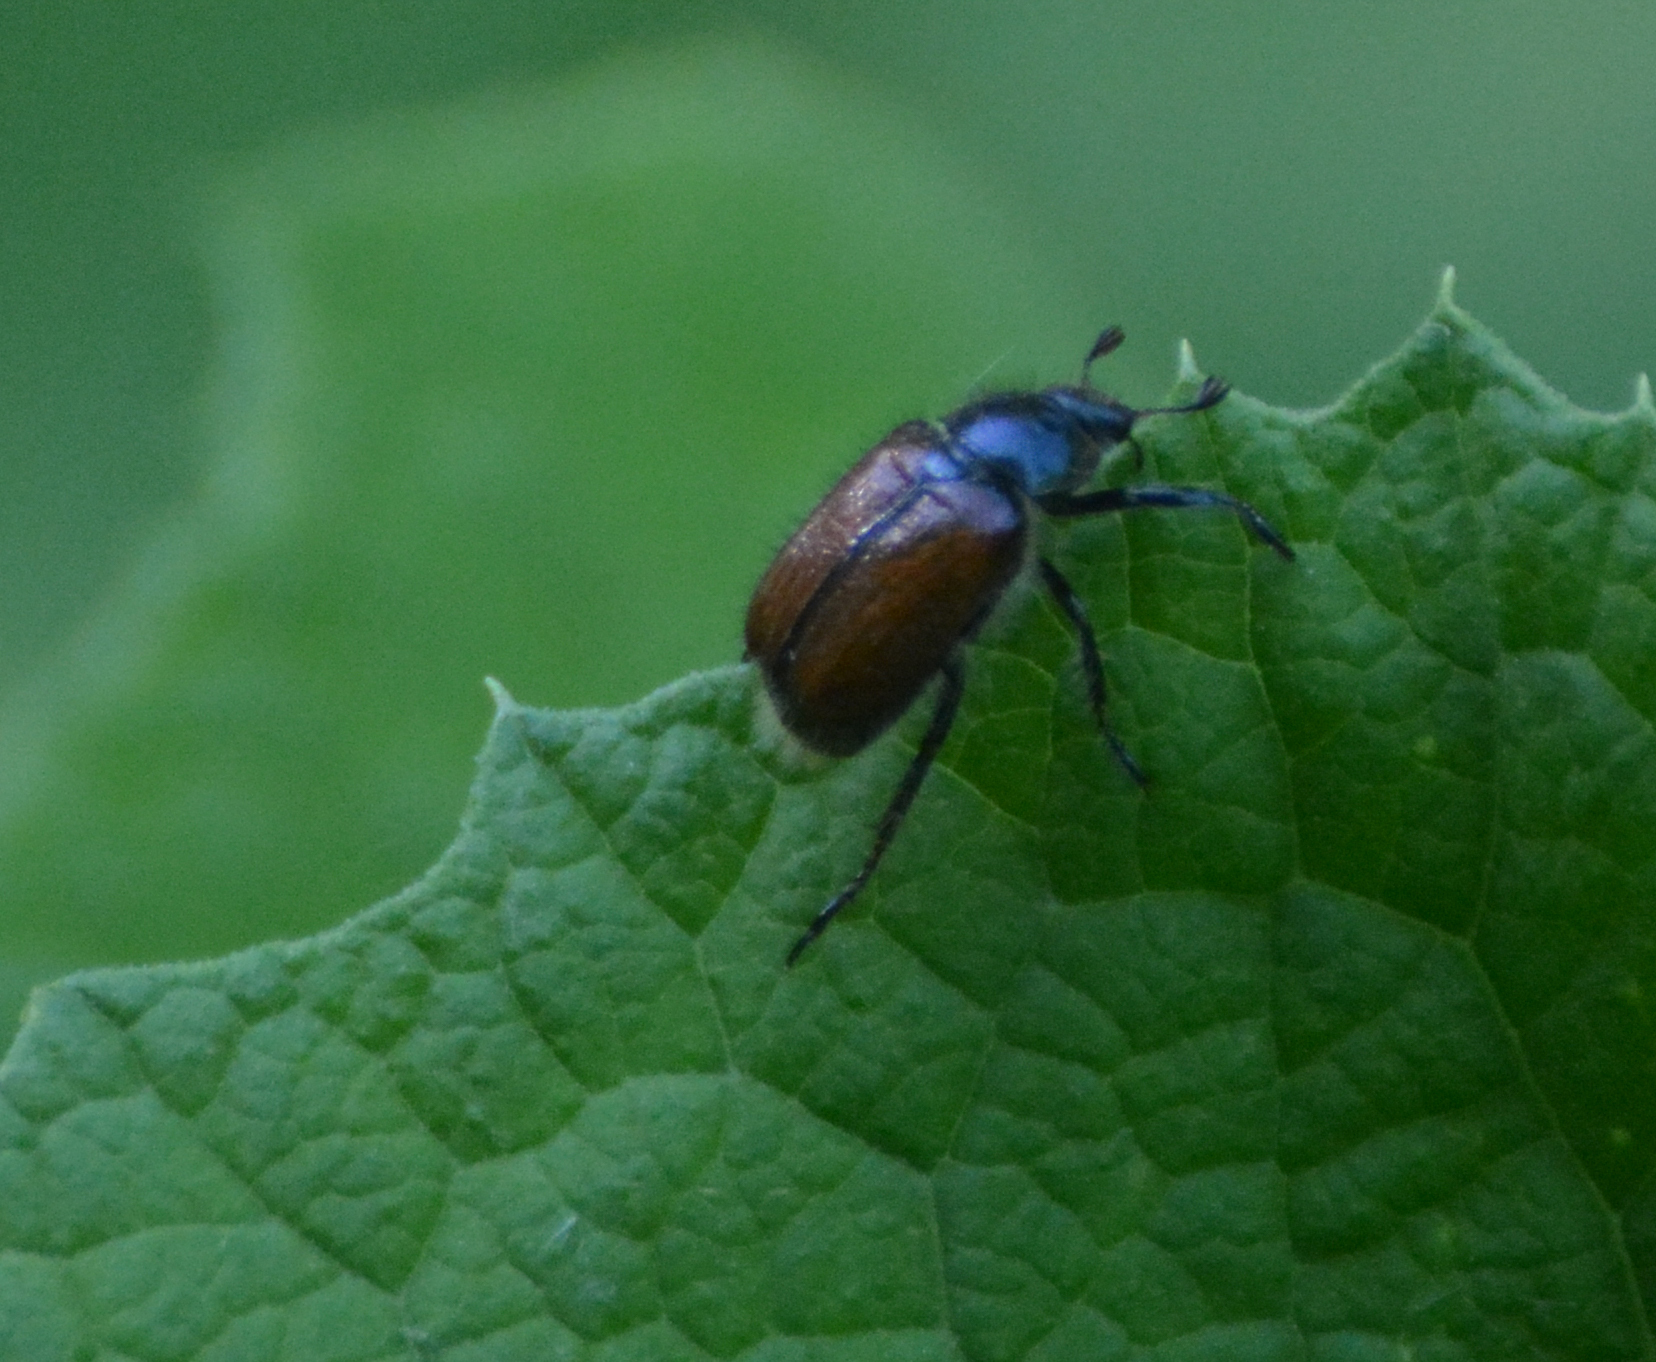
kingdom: Animalia
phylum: Arthropoda
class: Insecta
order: Coleoptera
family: Scarabaeidae
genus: Phyllopertha
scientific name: Phyllopertha horticola
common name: Garden chafer
